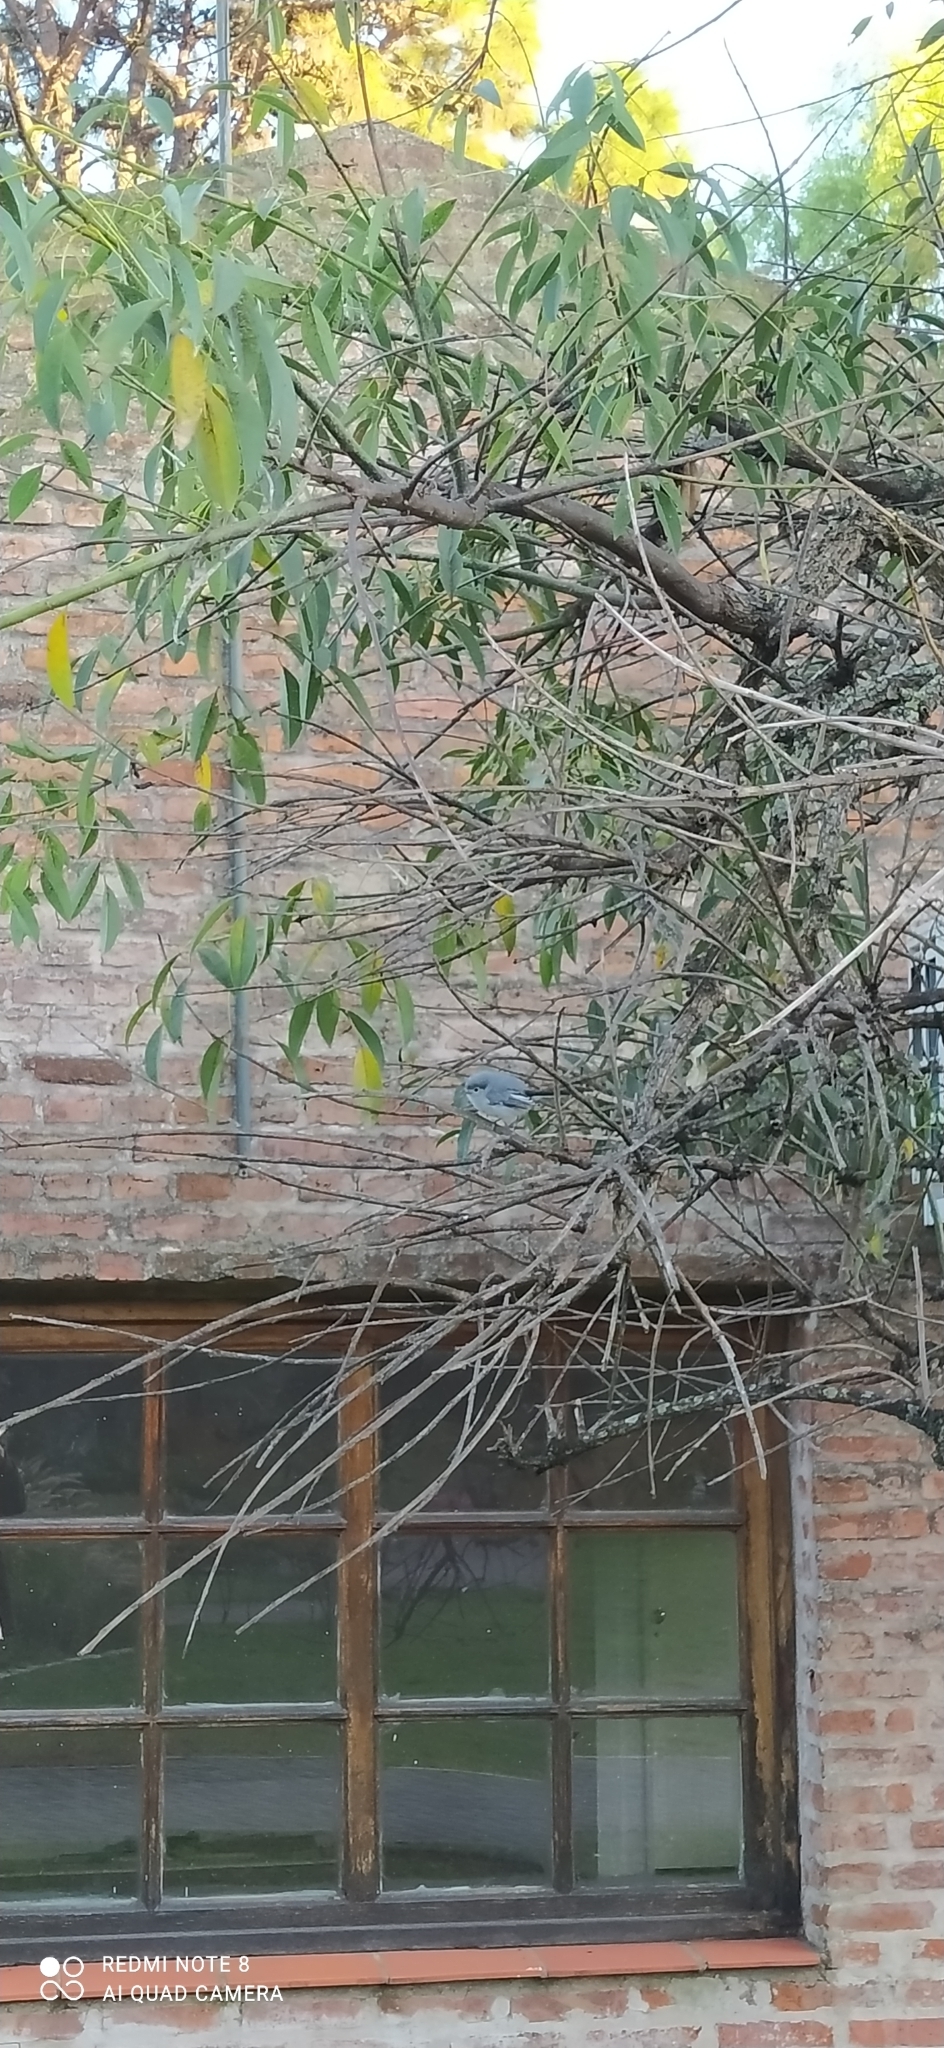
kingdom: Animalia
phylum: Chordata
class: Aves
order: Passeriformes
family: Polioptilidae
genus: Polioptila
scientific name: Polioptila dumicola
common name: Masked gnatcatcher
